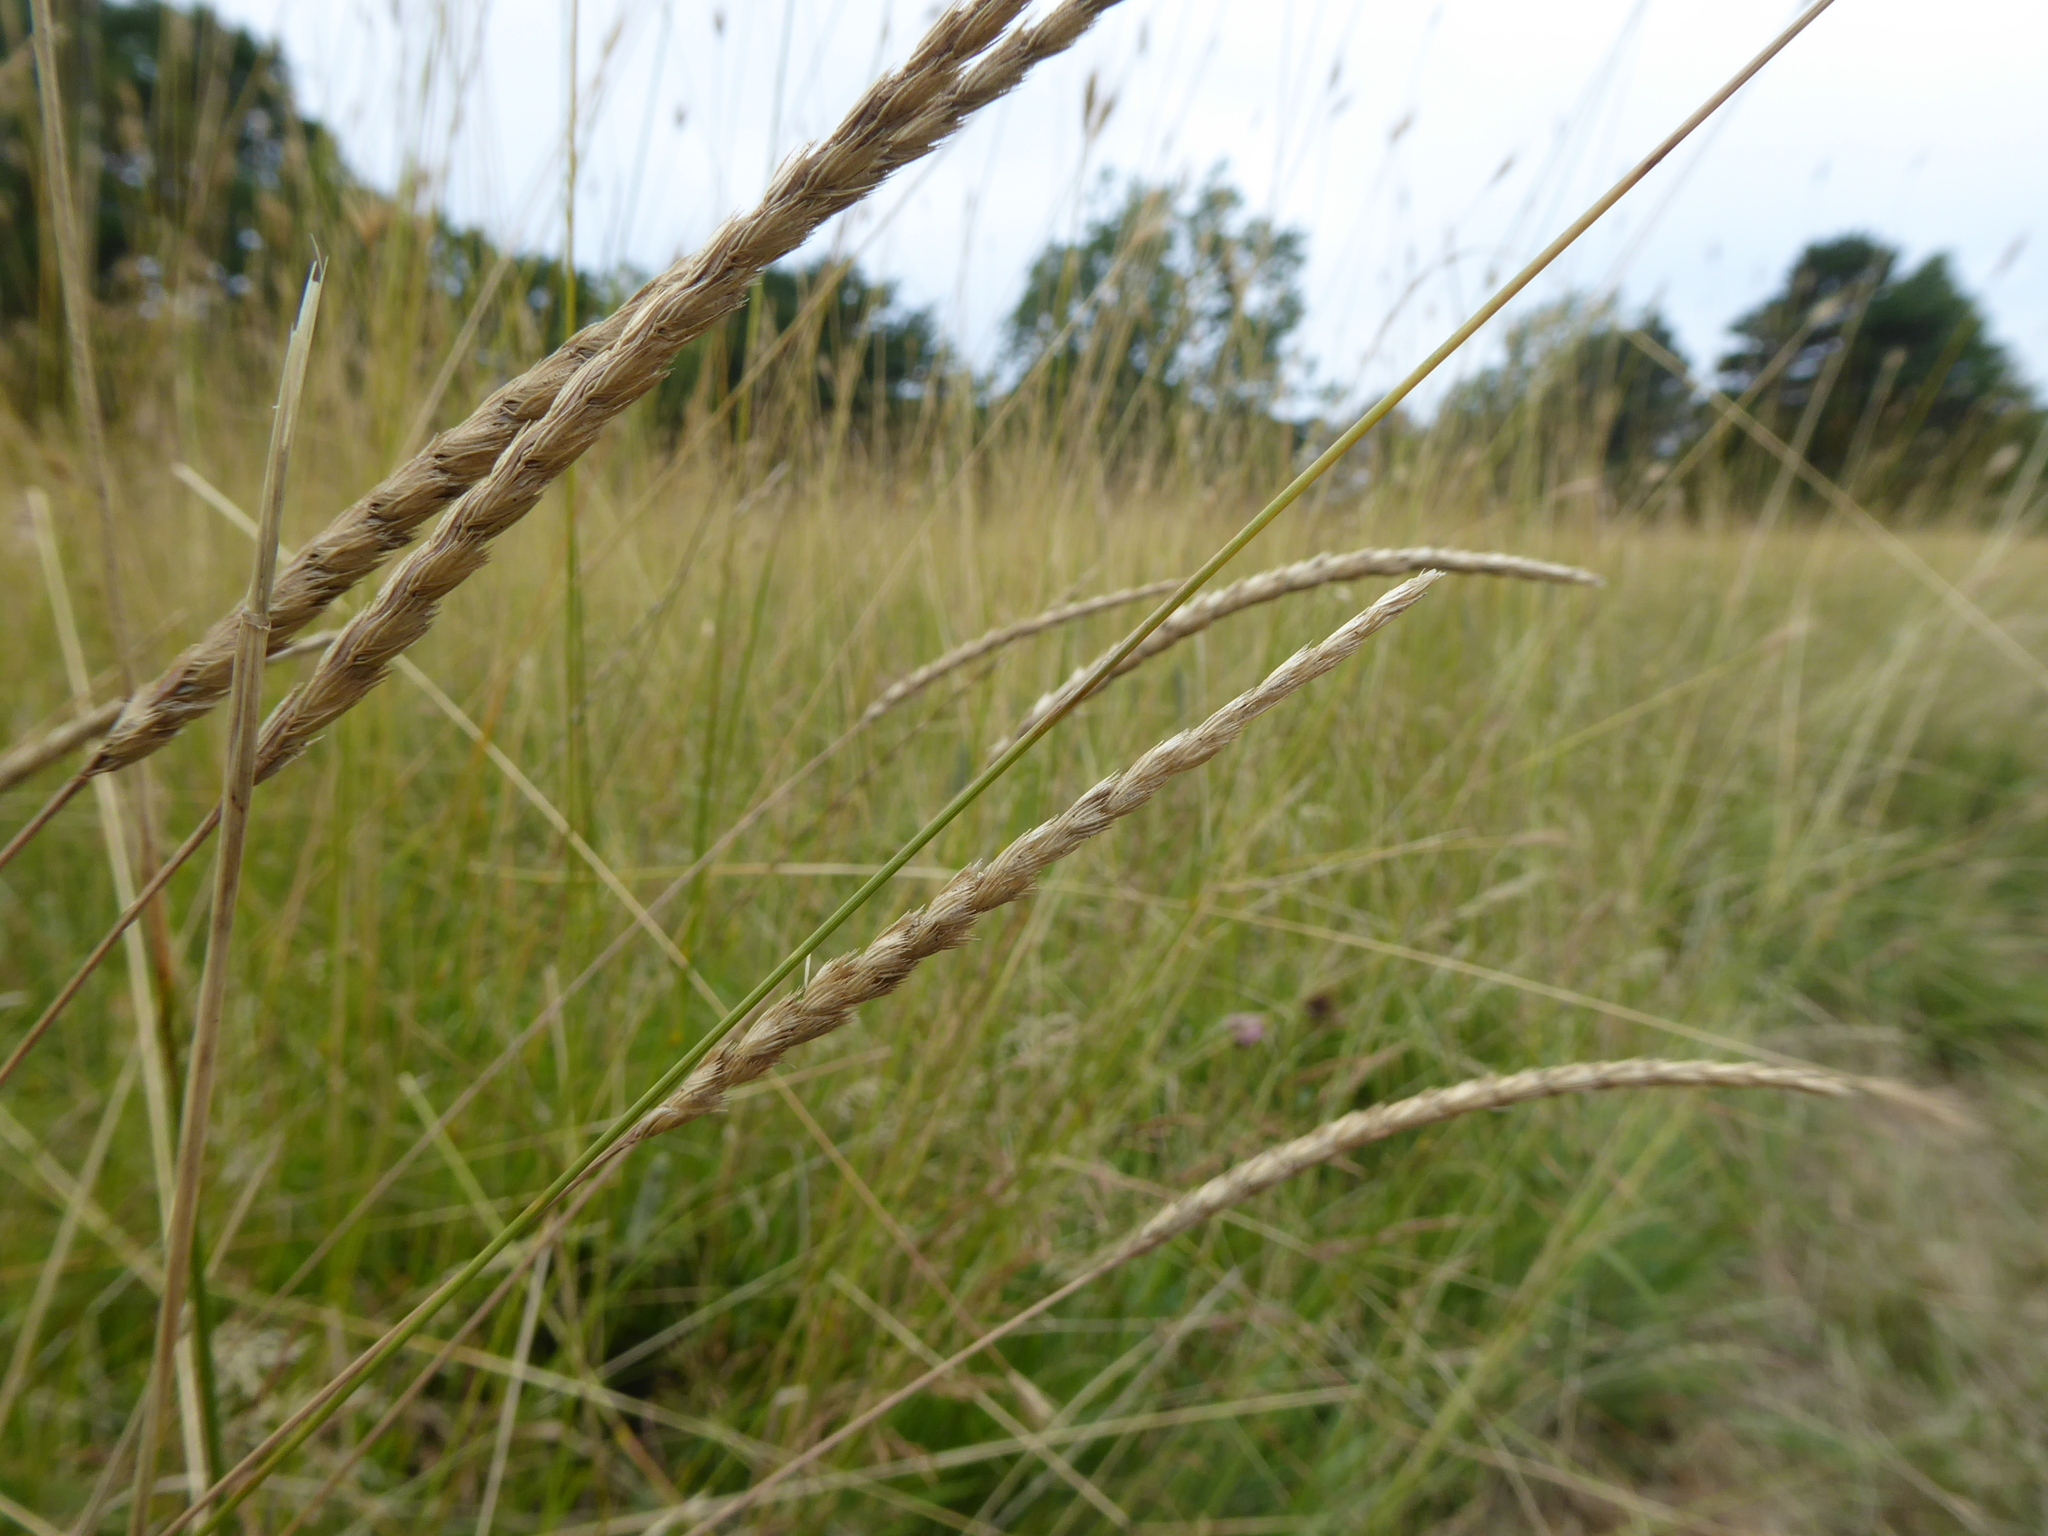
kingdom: Plantae
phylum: Tracheophyta
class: Liliopsida
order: Poales
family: Poaceae
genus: Cynosurus
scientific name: Cynosurus cristatus
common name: Crested dog's-tail
